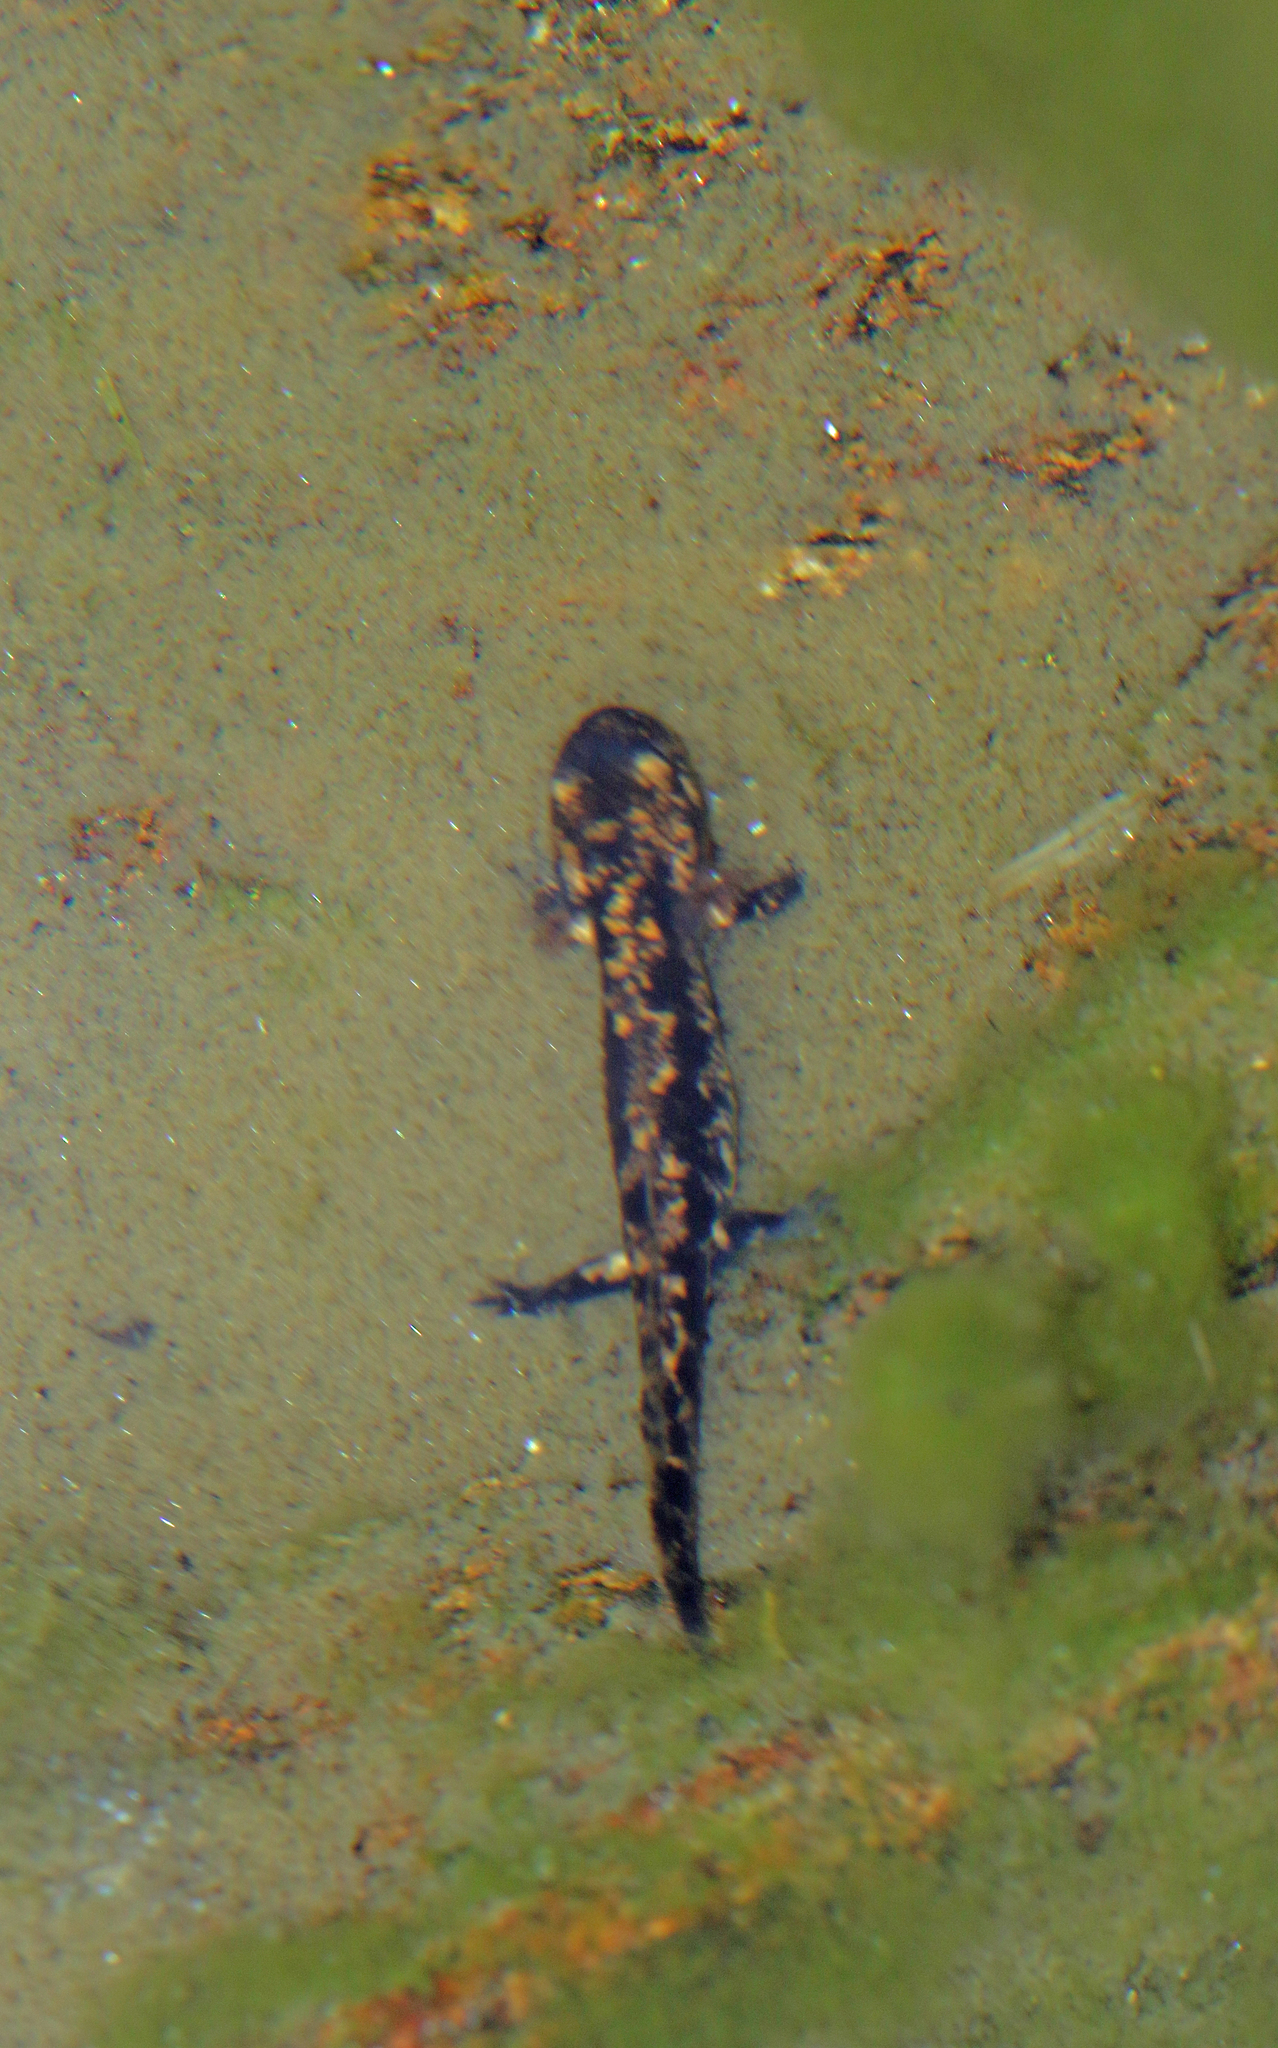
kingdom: Animalia
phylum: Chordata
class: Amphibia
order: Caudata
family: Salamandridae
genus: Salamandra
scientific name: Salamandra salamandra
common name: Fire salamander
